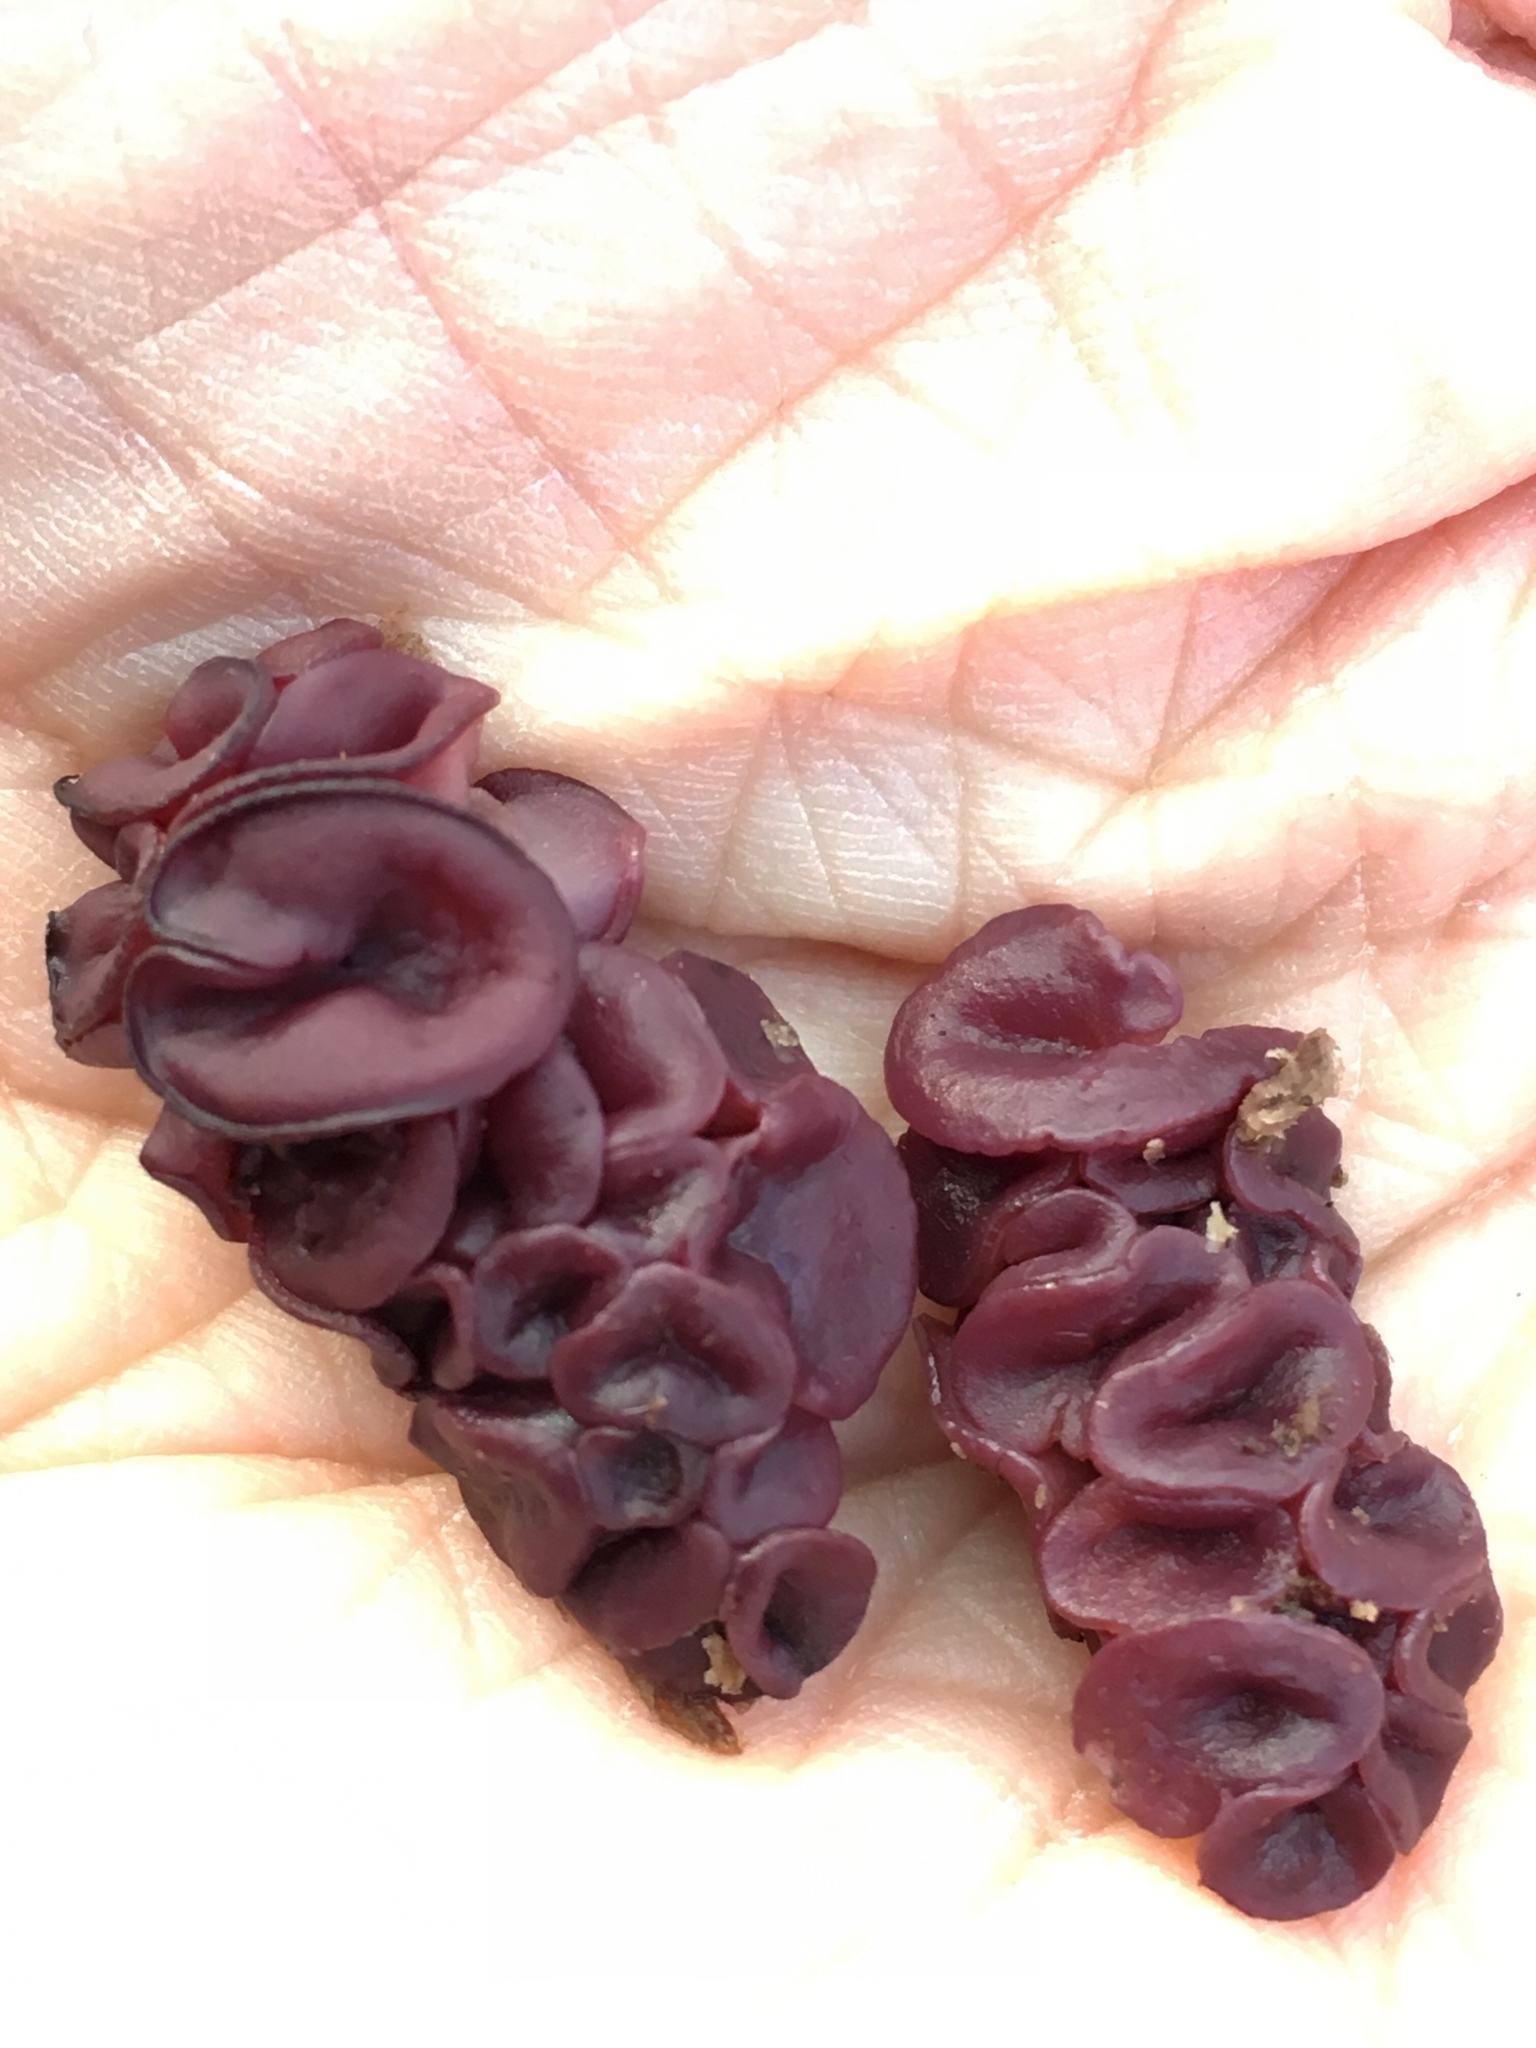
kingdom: Fungi
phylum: Ascomycota
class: Leotiomycetes
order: Helotiales
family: Gelatinodiscaceae
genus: Ascocoryne
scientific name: Ascocoryne sarcoides
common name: Purple jellydisc
